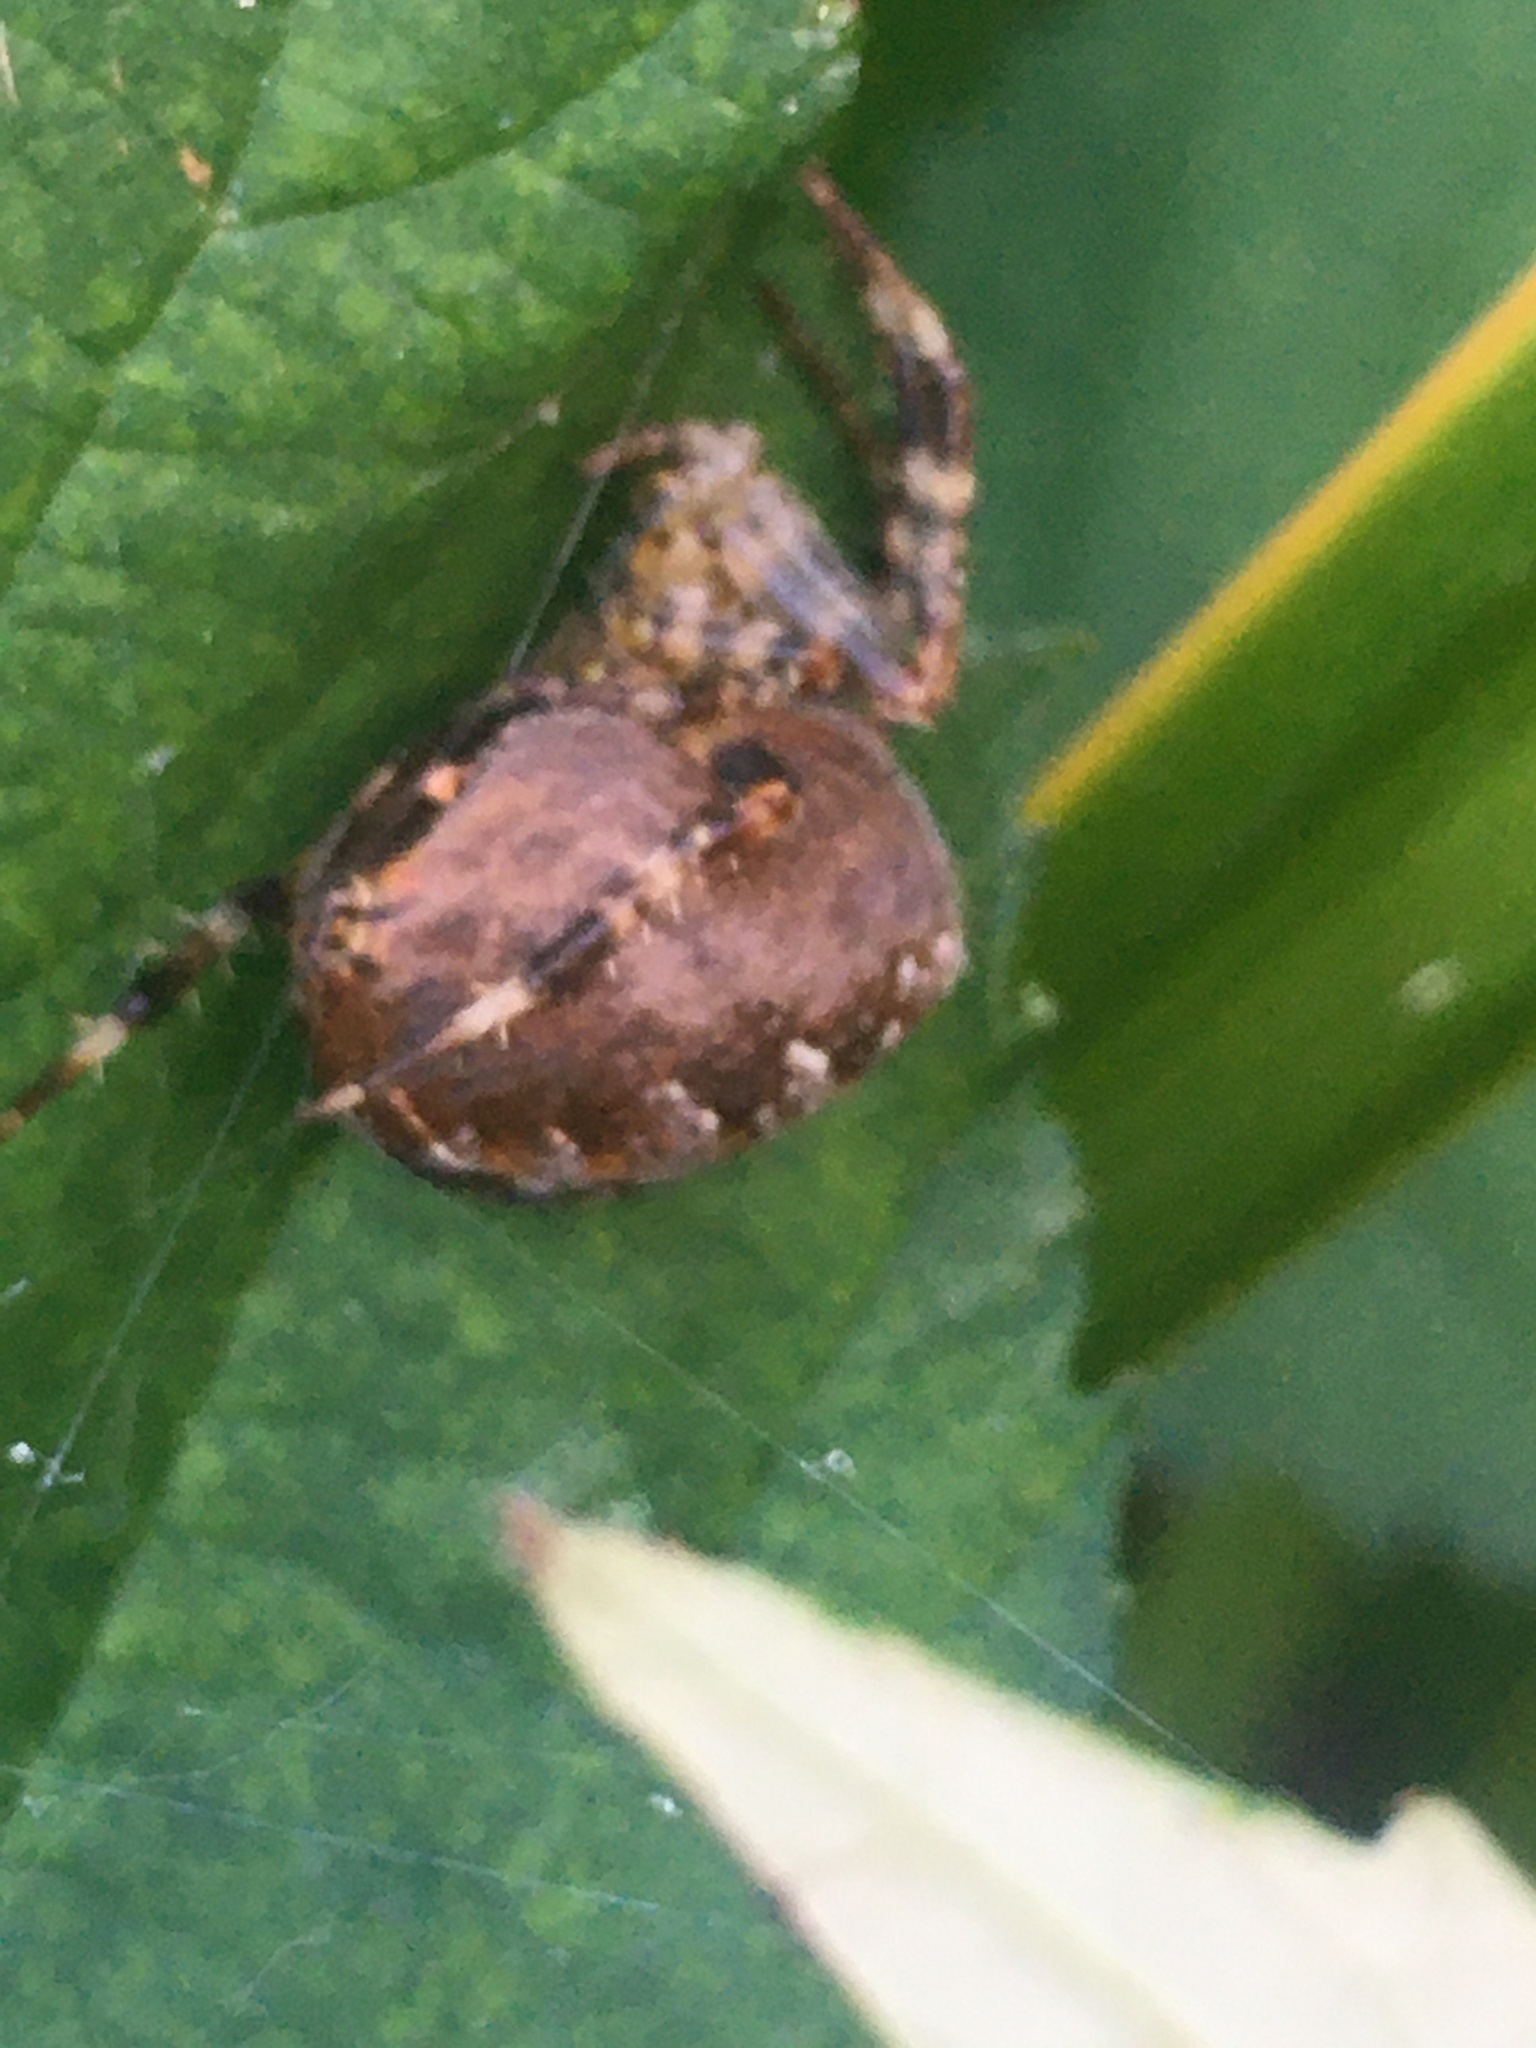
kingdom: Animalia
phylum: Arthropoda
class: Arachnida
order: Araneae
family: Araneidae
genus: Araneus
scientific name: Araneus diadematus
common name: Cross orbweaver
